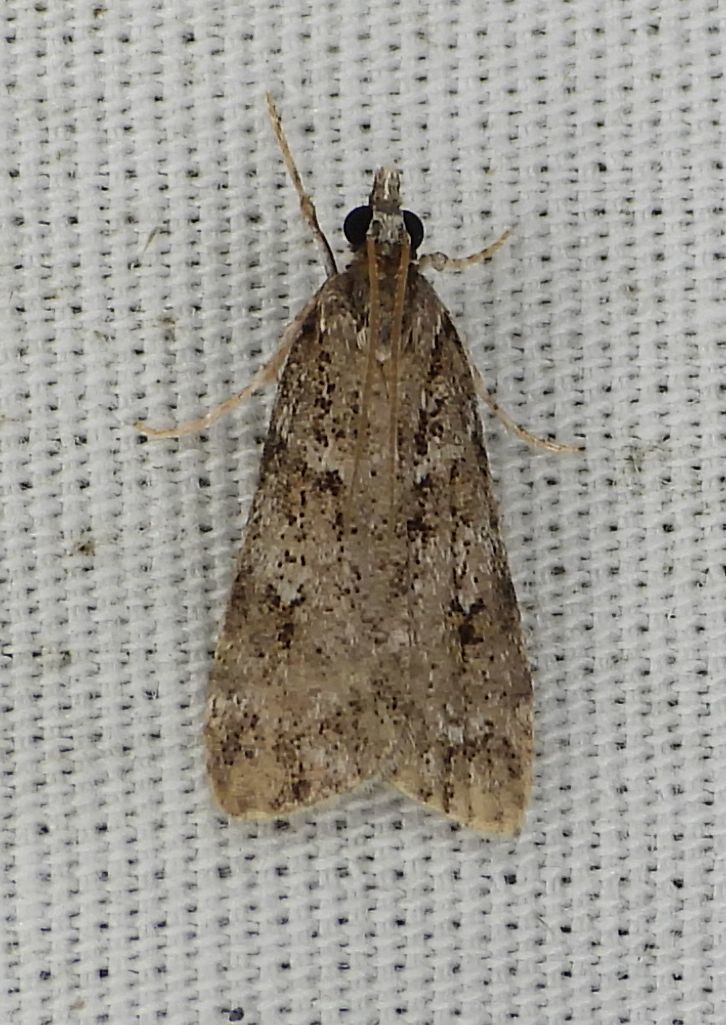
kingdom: Animalia
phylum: Arthropoda
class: Insecta
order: Lepidoptera
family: Crambidae
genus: Scoparia
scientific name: Scoparia biplagialis
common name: Double-striped scoparia moth
